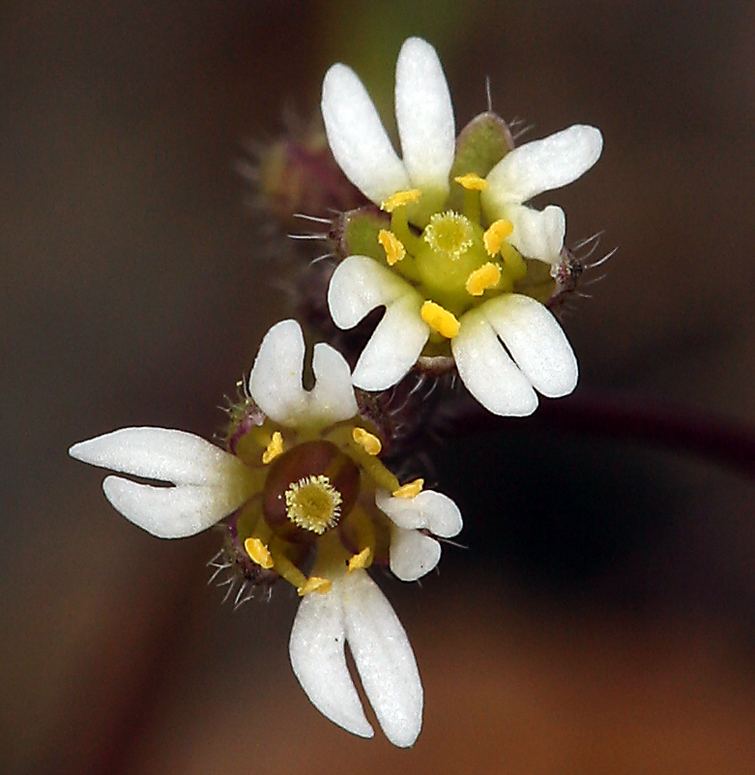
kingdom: Plantae
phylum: Tracheophyta
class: Magnoliopsida
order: Brassicales
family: Brassicaceae
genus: Draba
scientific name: Draba verna
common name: Spring draba
